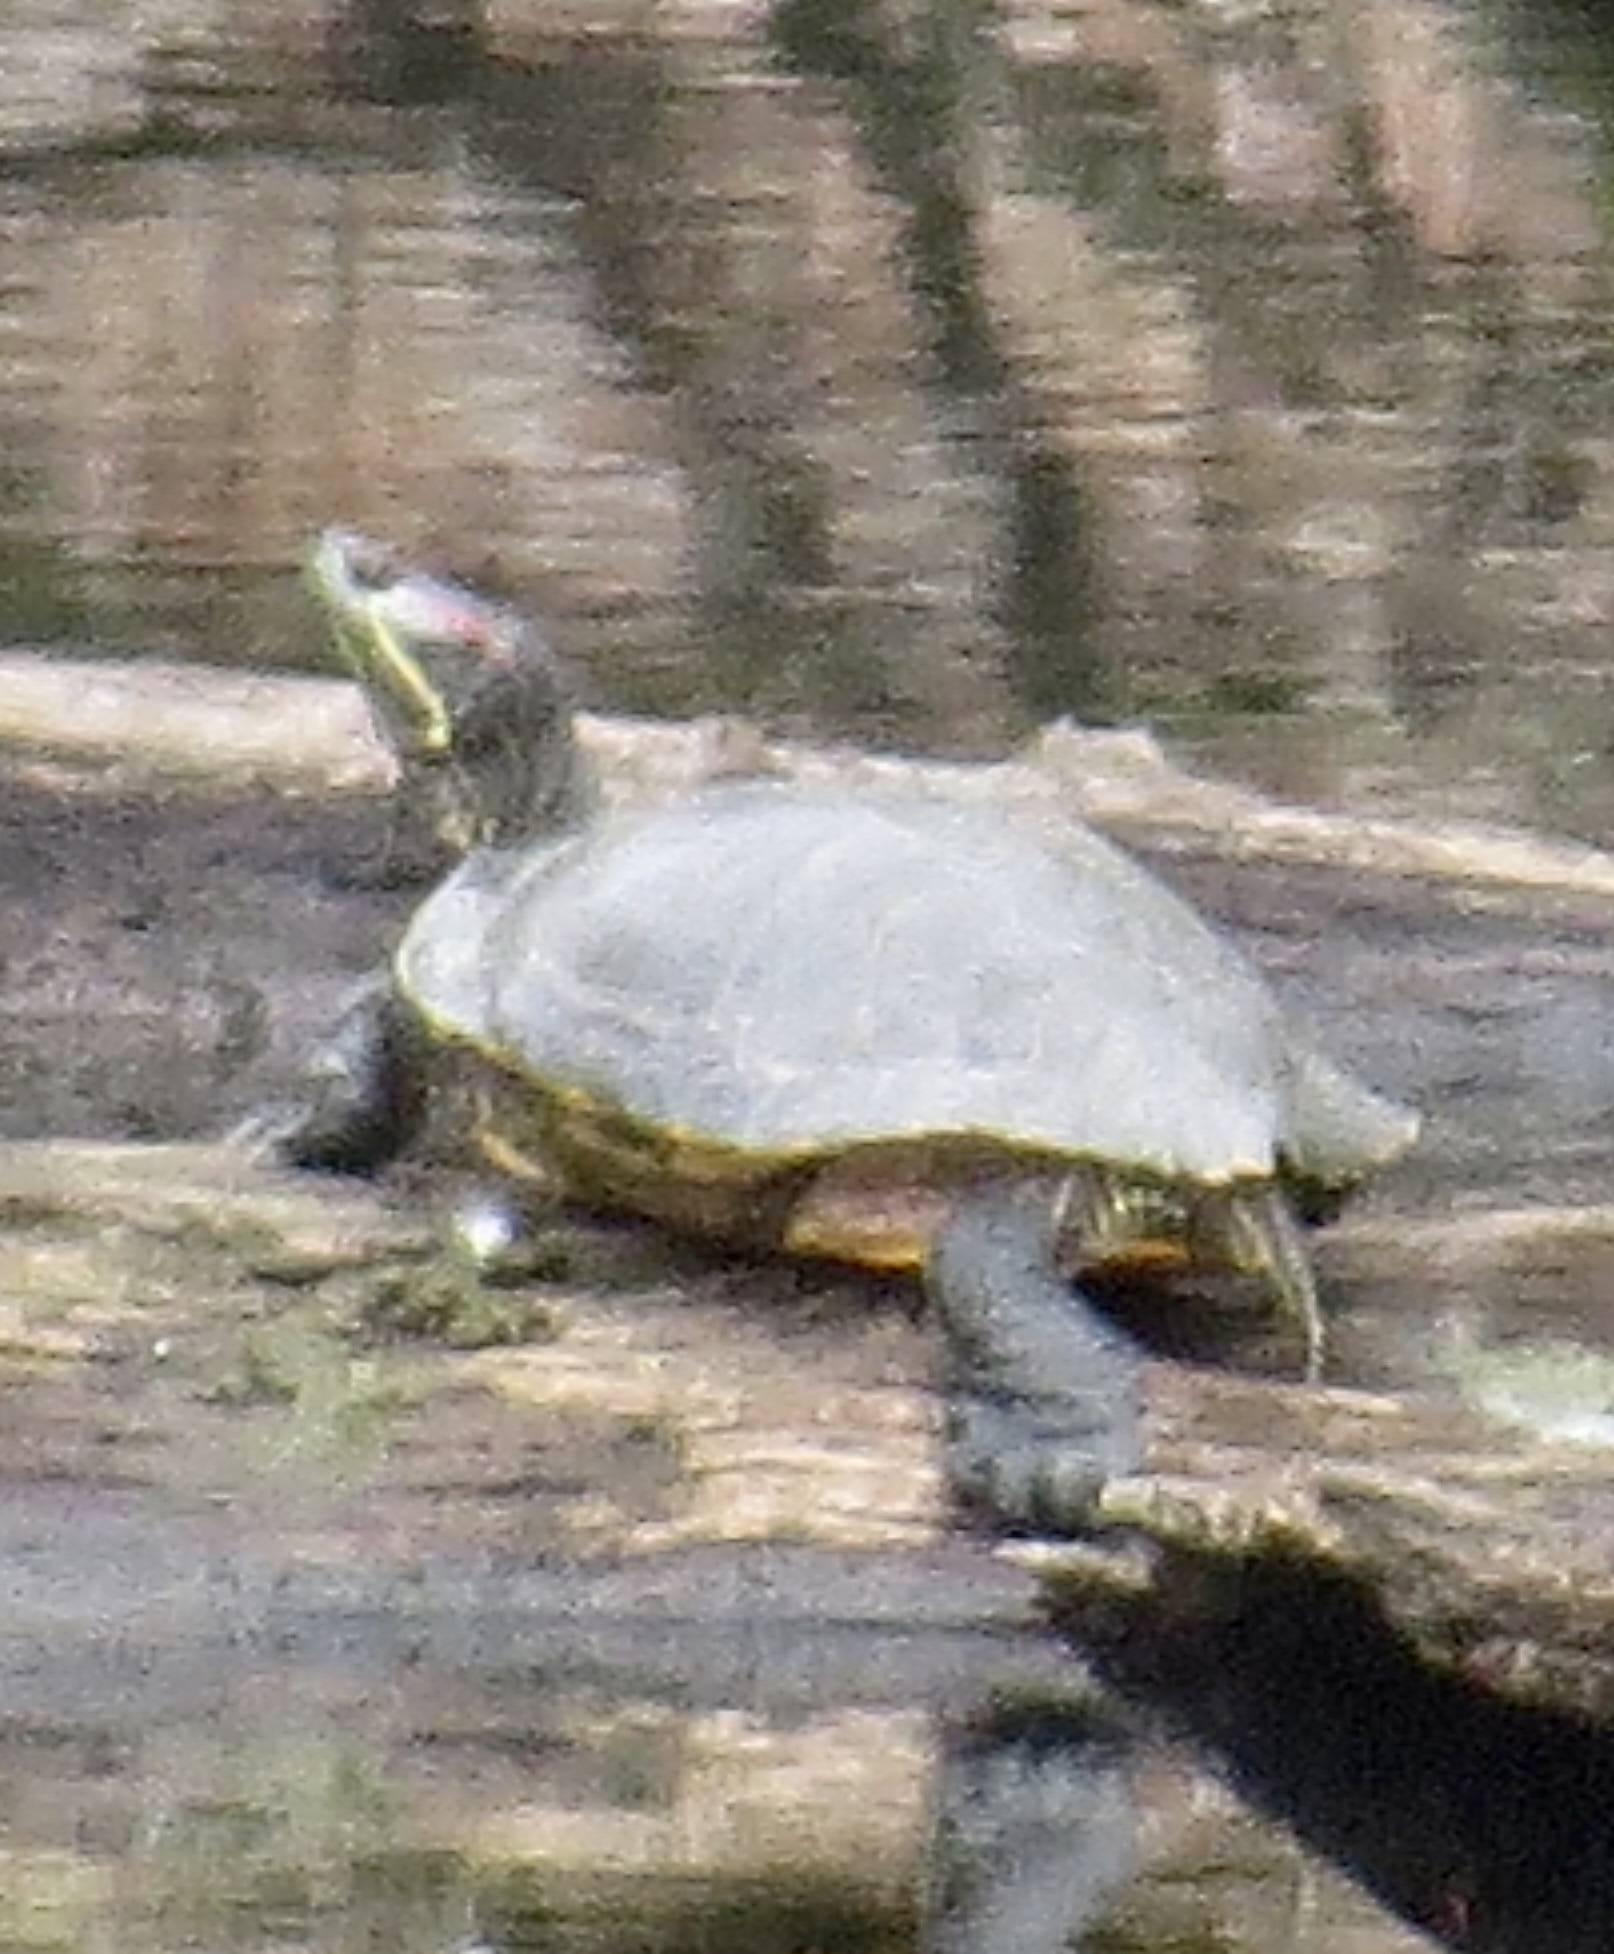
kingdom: Animalia
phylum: Chordata
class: Testudines
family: Emydidae
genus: Trachemys
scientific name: Trachemys scripta
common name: Slider
